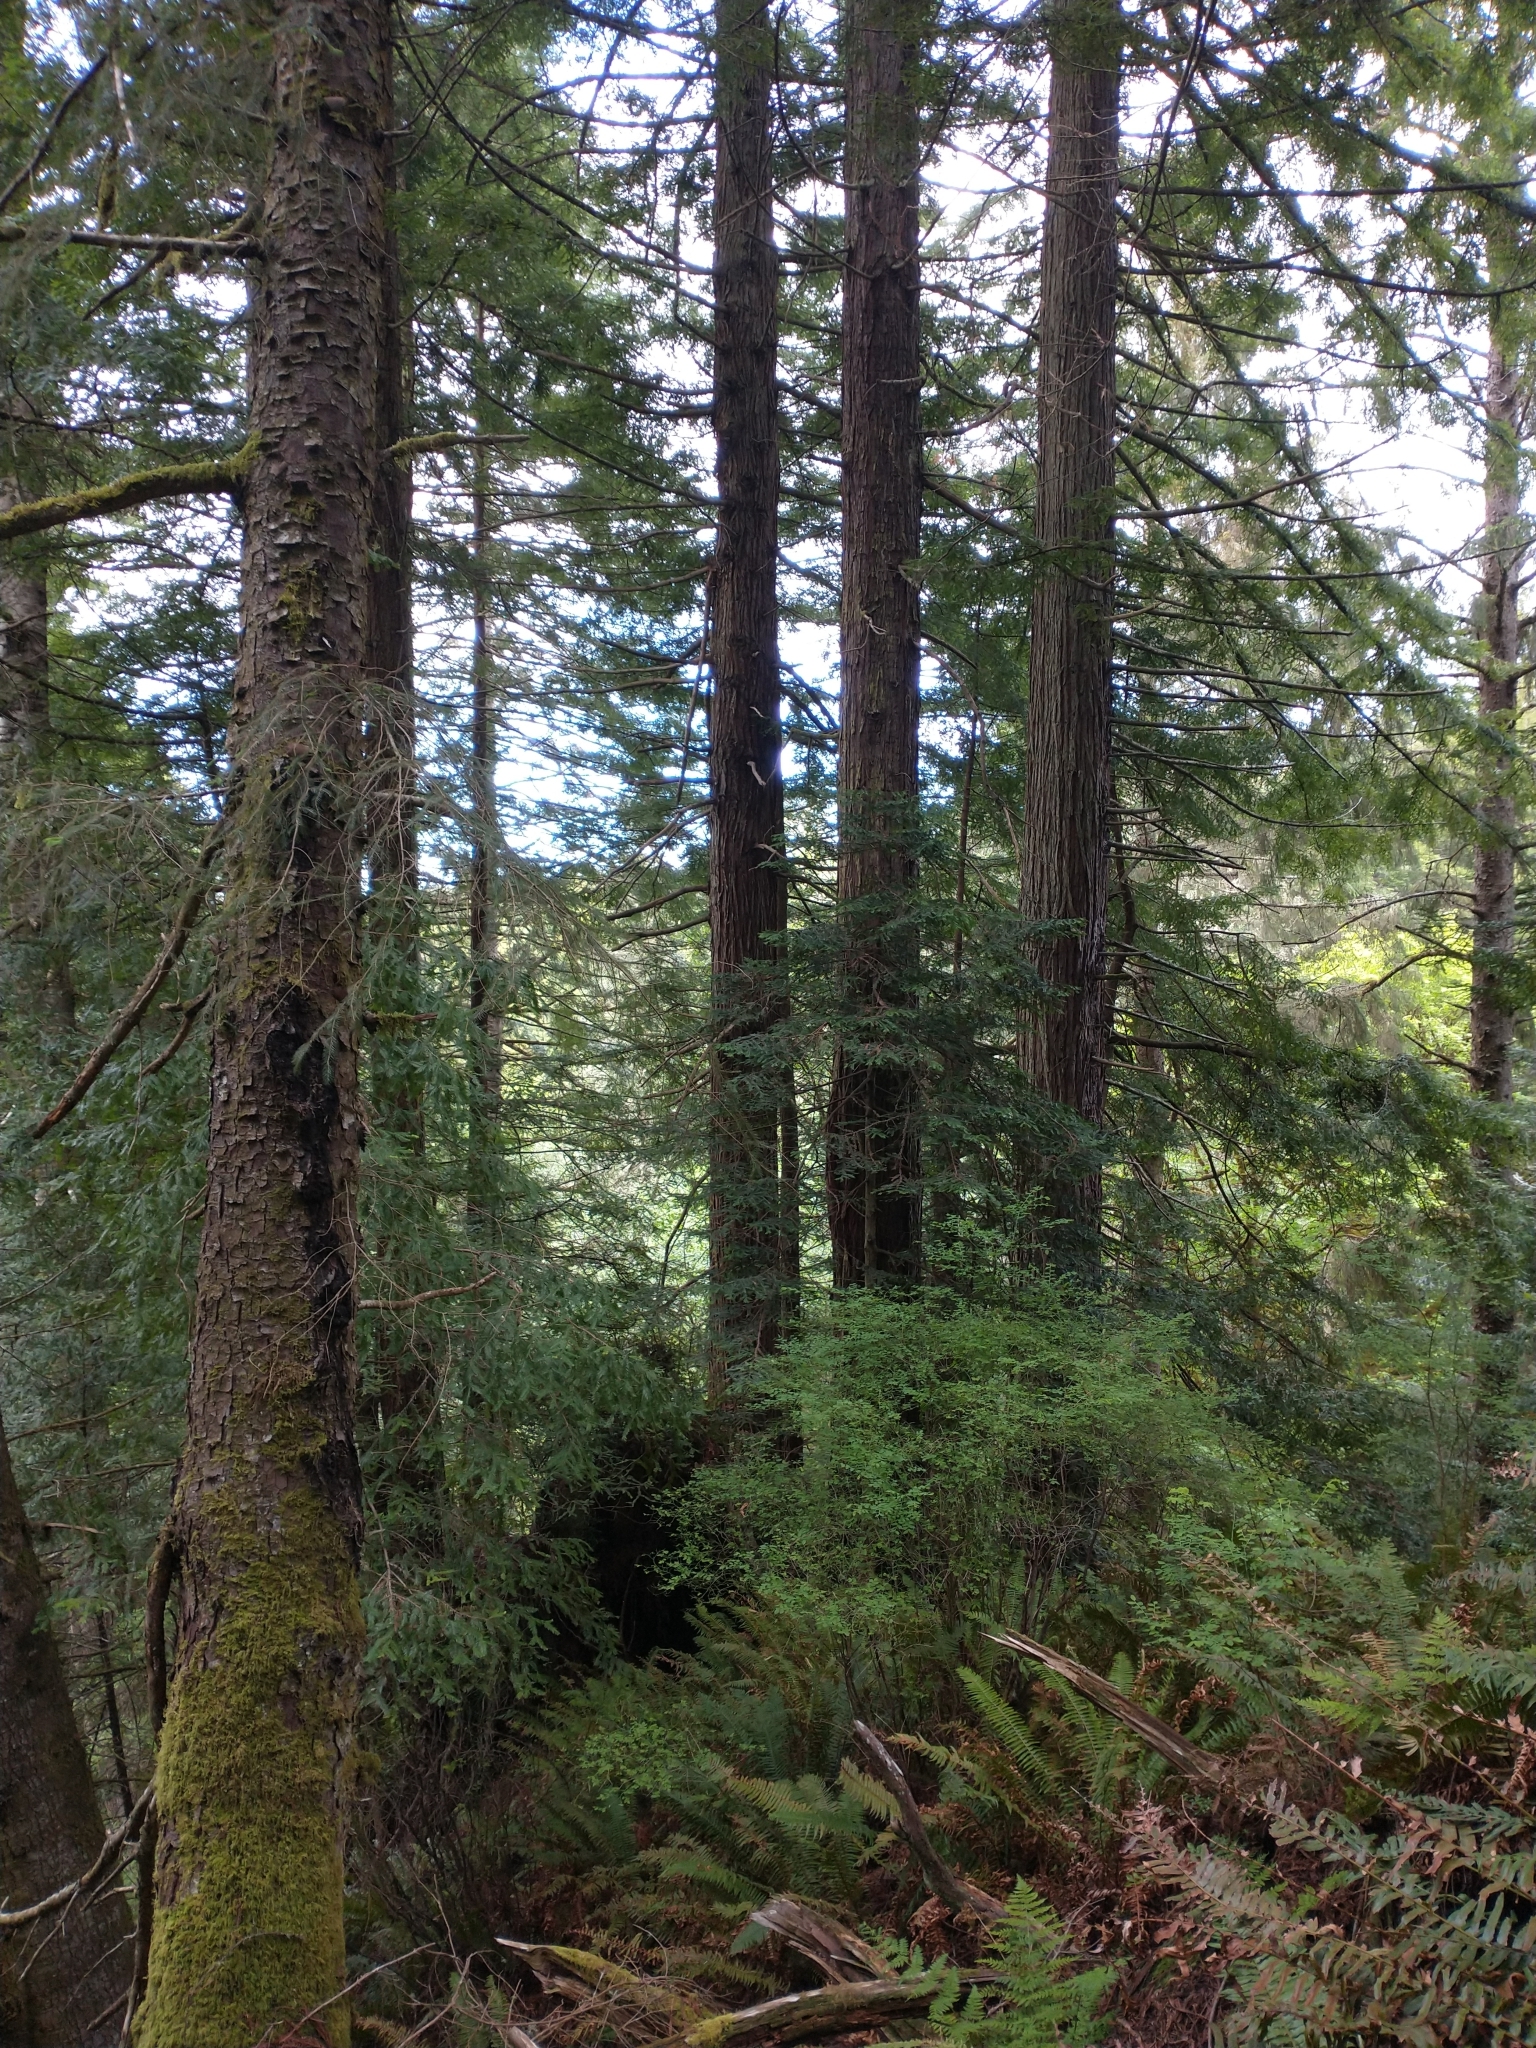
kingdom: Plantae
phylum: Tracheophyta
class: Pinopsida
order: Pinales
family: Pinaceae
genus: Picea
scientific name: Picea sitchensis
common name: Sitka spruce
